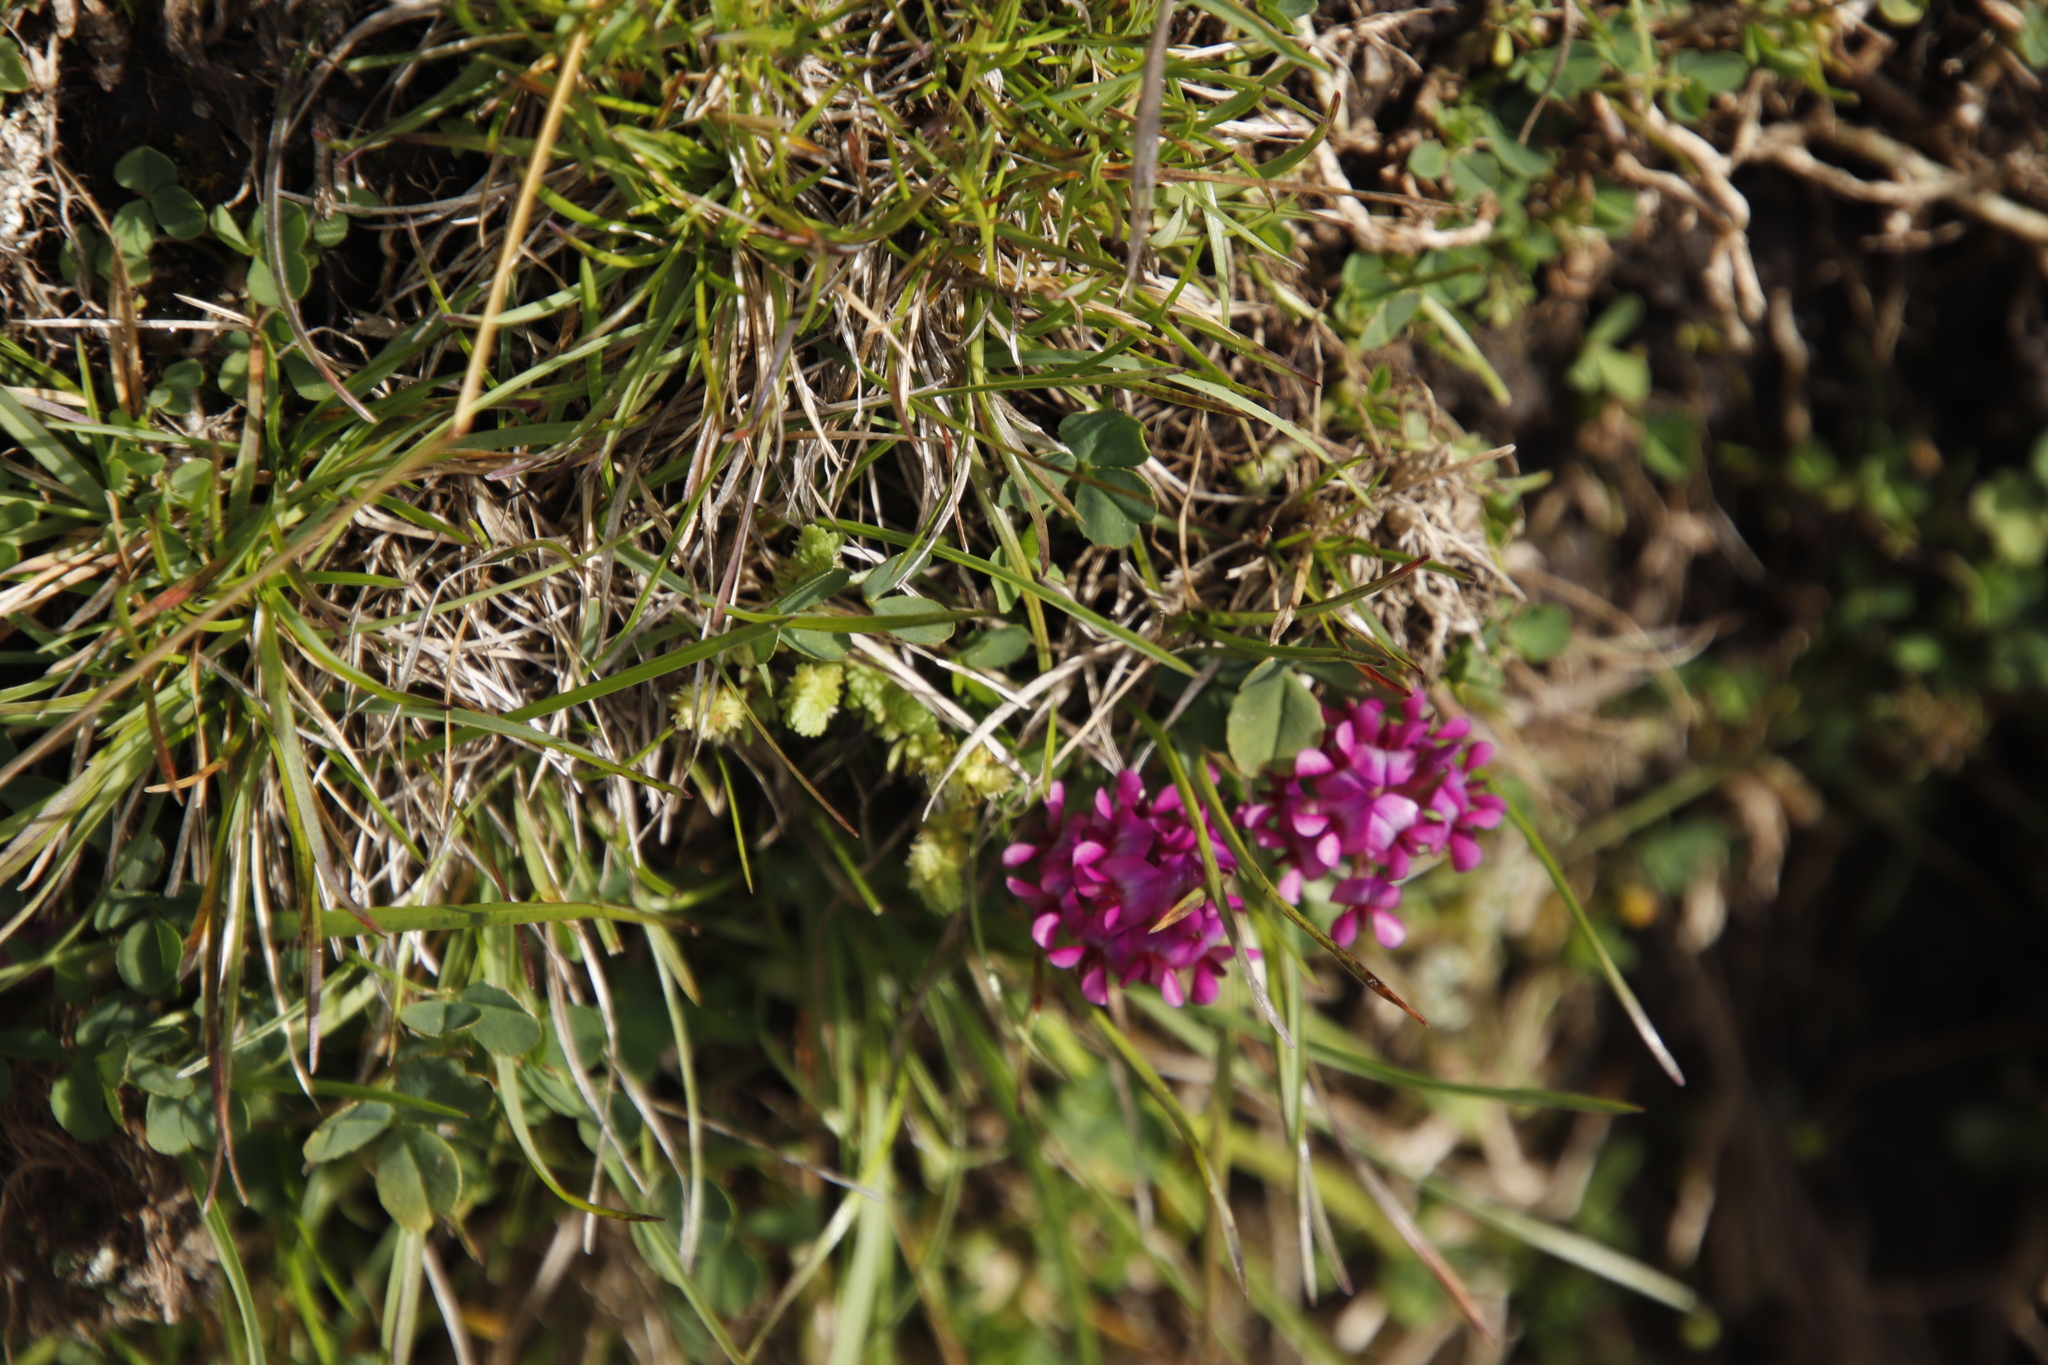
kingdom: Plantae
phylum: Tracheophyta
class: Magnoliopsida
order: Fabales
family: Fabaceae
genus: Trifolium
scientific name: Trifolium burchellianum
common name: Burchell's clover
